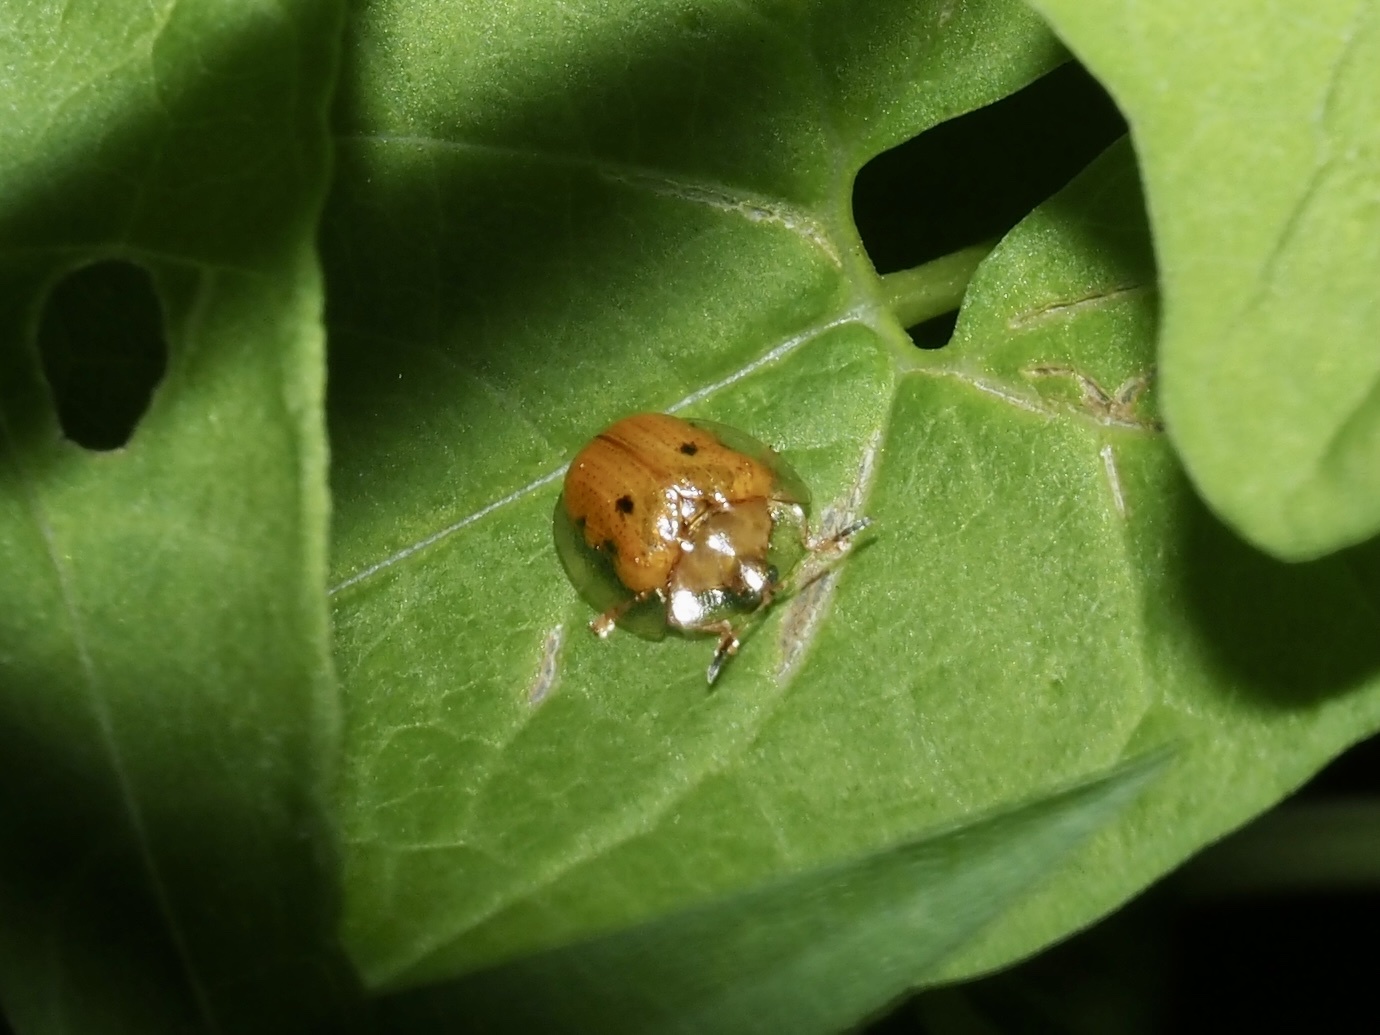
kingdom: Animalia
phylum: Arthropoda
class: Insecta
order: Coleoptera
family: Chrysomelidae
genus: Charidotella
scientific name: Charidotella sexpunctata
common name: Golden tortoise beetle
